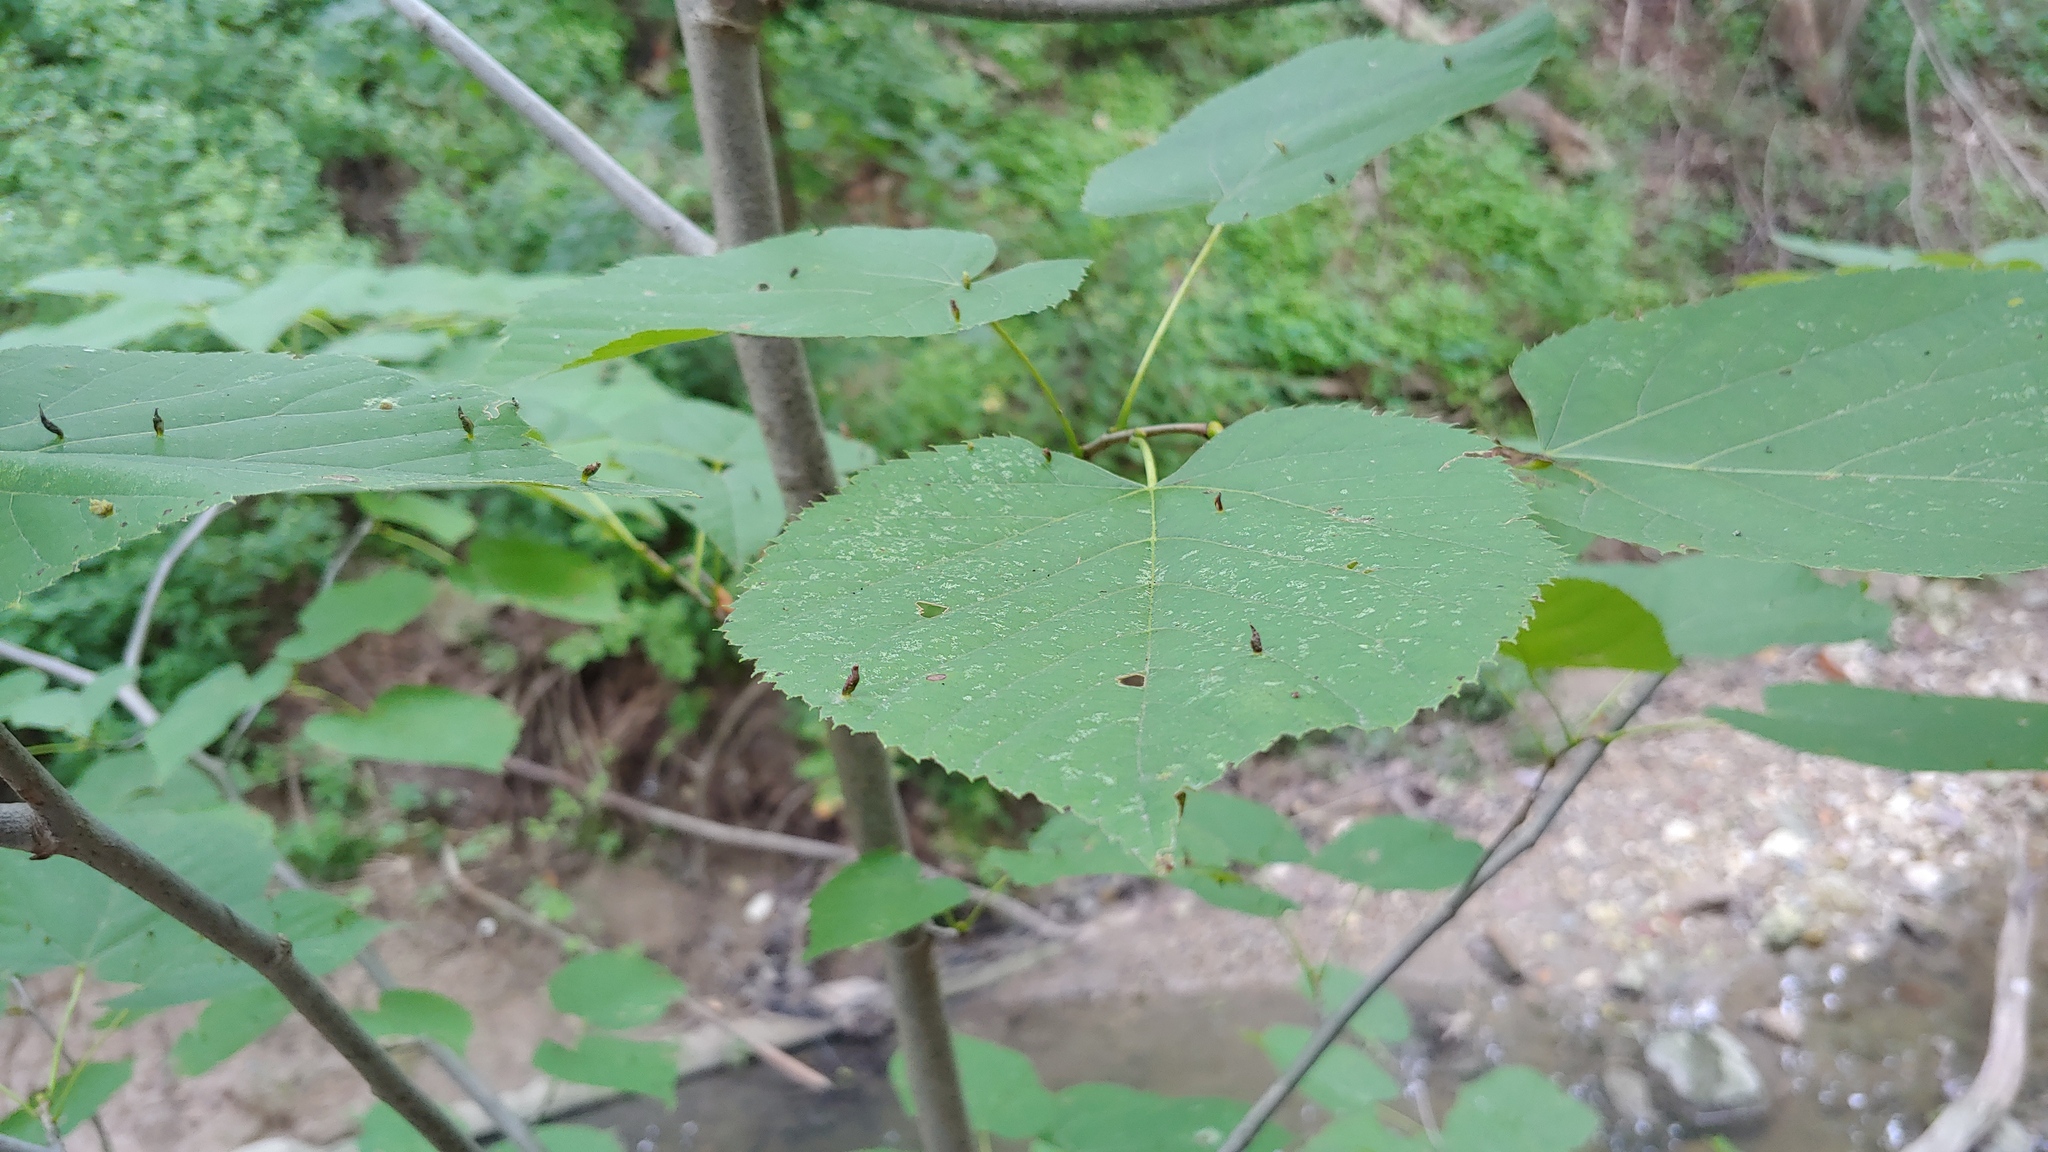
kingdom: Plantae
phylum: Tracheophyta
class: Magnoliopsida
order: Malvales
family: Malvaceae
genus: Tilia
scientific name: Tilia americana
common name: Basswood
